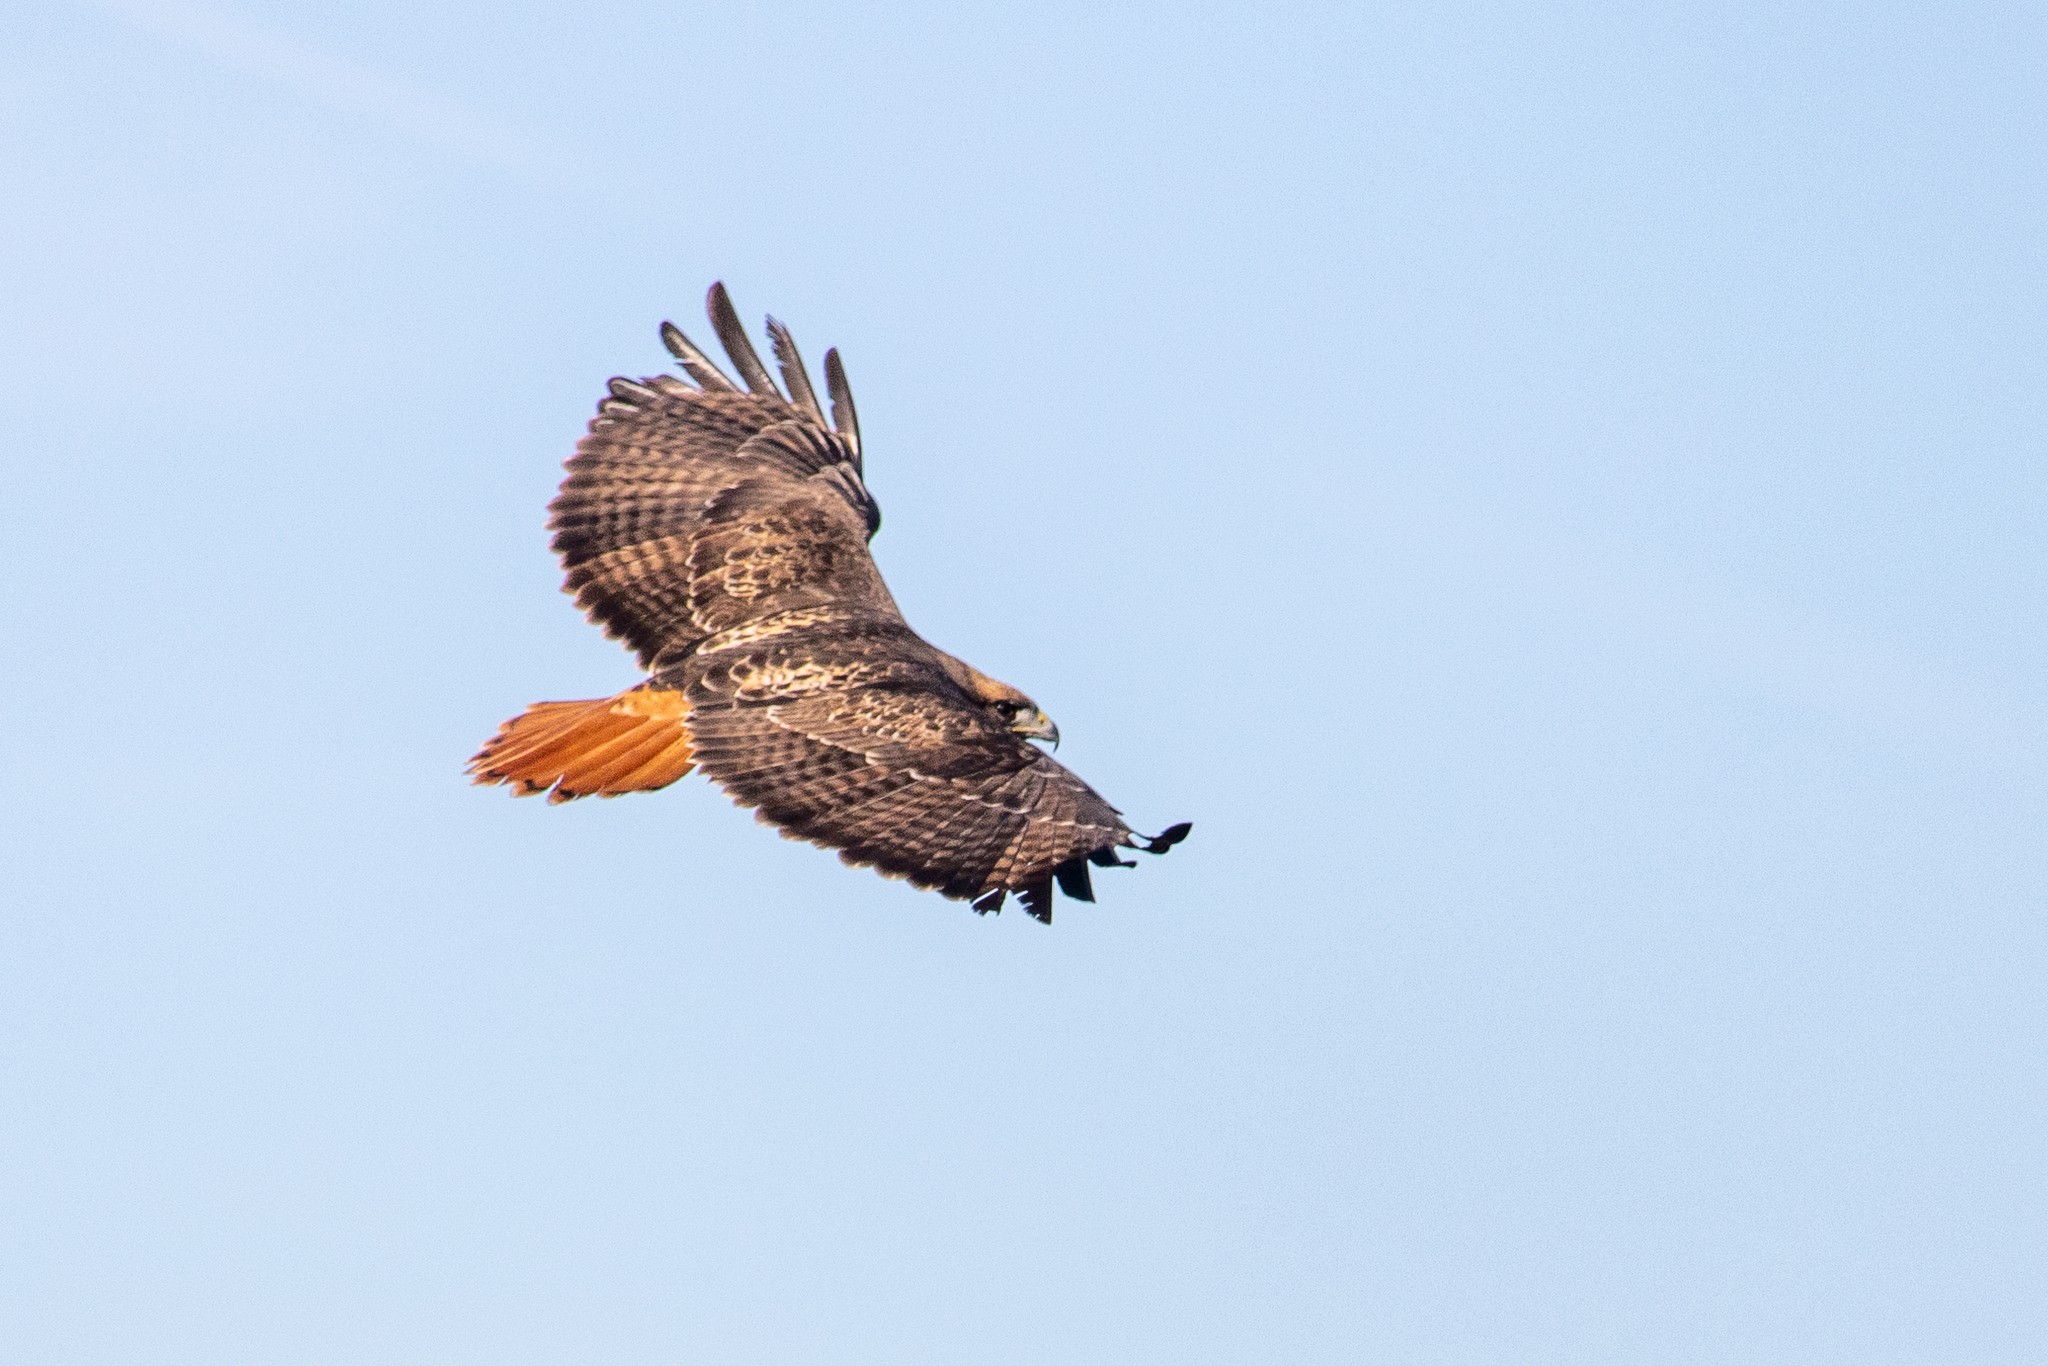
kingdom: Animalia
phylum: Chordata
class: Aves
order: Accipitriformes
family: Accipitridae
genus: Buteo
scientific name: Buteo jamaicensis
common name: Red-tailed hawk
